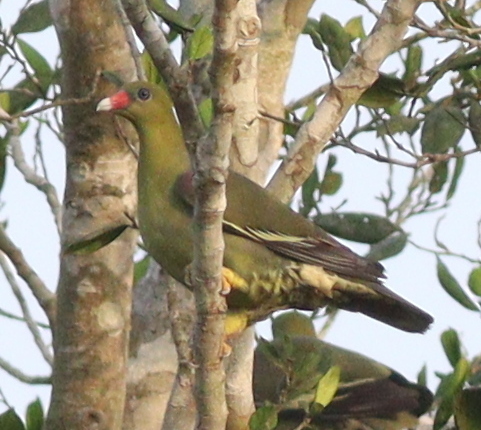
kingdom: Animalia
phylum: Chordata
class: Aves
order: Columbiformes
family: Columbidae
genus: Treron
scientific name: Treron calvus
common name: African green pigeon
